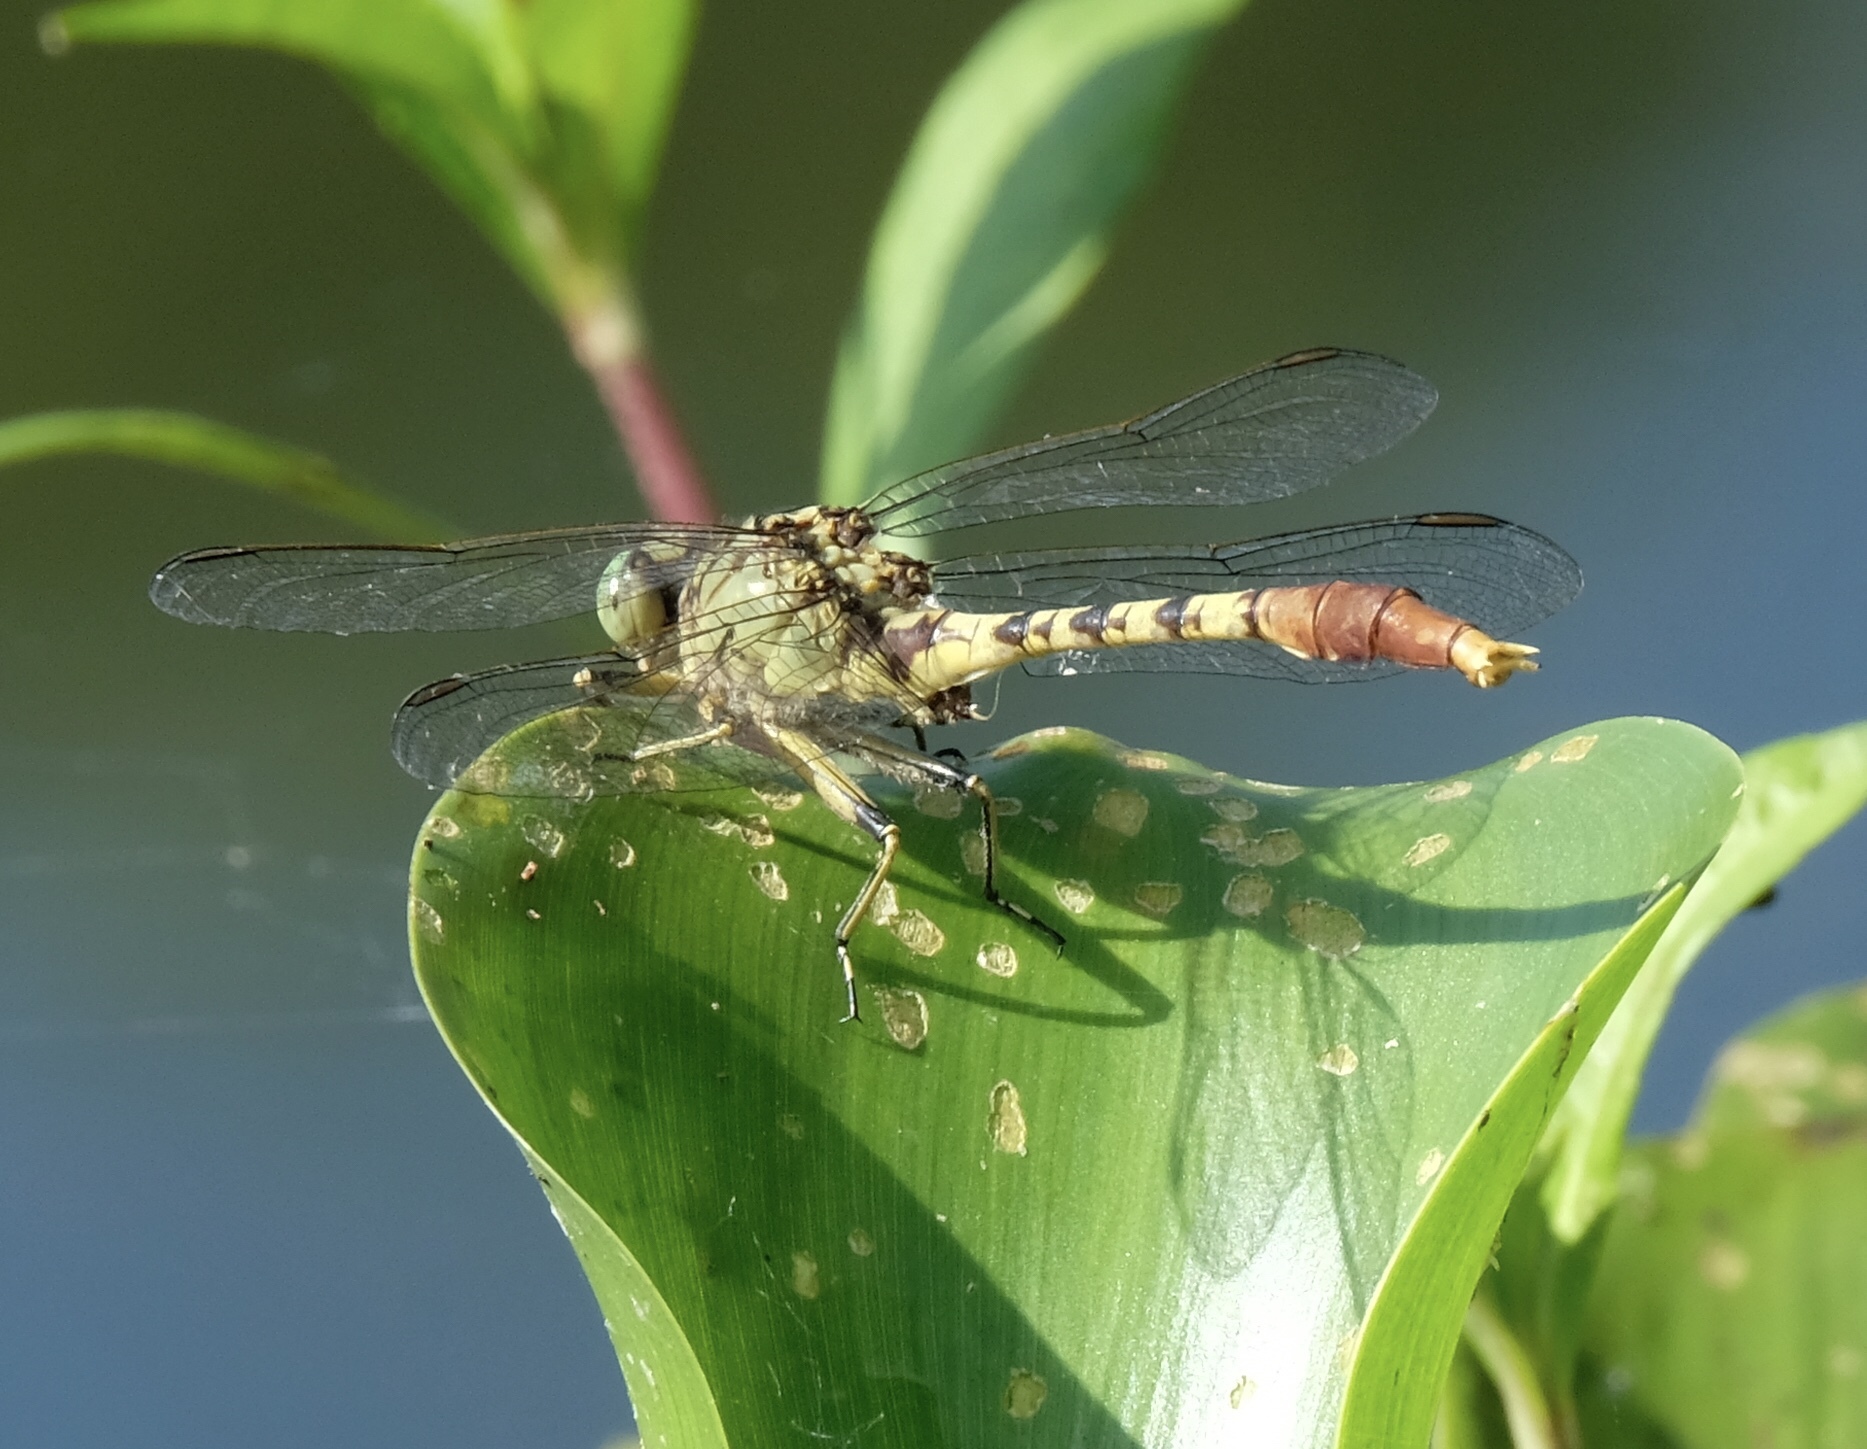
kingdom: Animalia
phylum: Arthropoda
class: Insecta
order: Odonata
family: Gomphidae
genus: Arigomphus
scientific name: Arigomphus submedianus
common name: Jade clubtail
